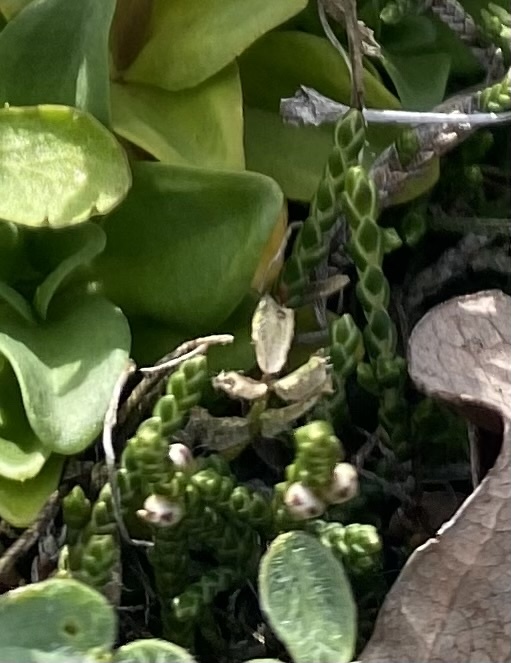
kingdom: Plantae
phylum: Tracheophyta
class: Magnoliopsida
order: Ericales
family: Ericaceae
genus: Cassiope
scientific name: Cassiope lycopodioides
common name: Clubmoss mountain heather
